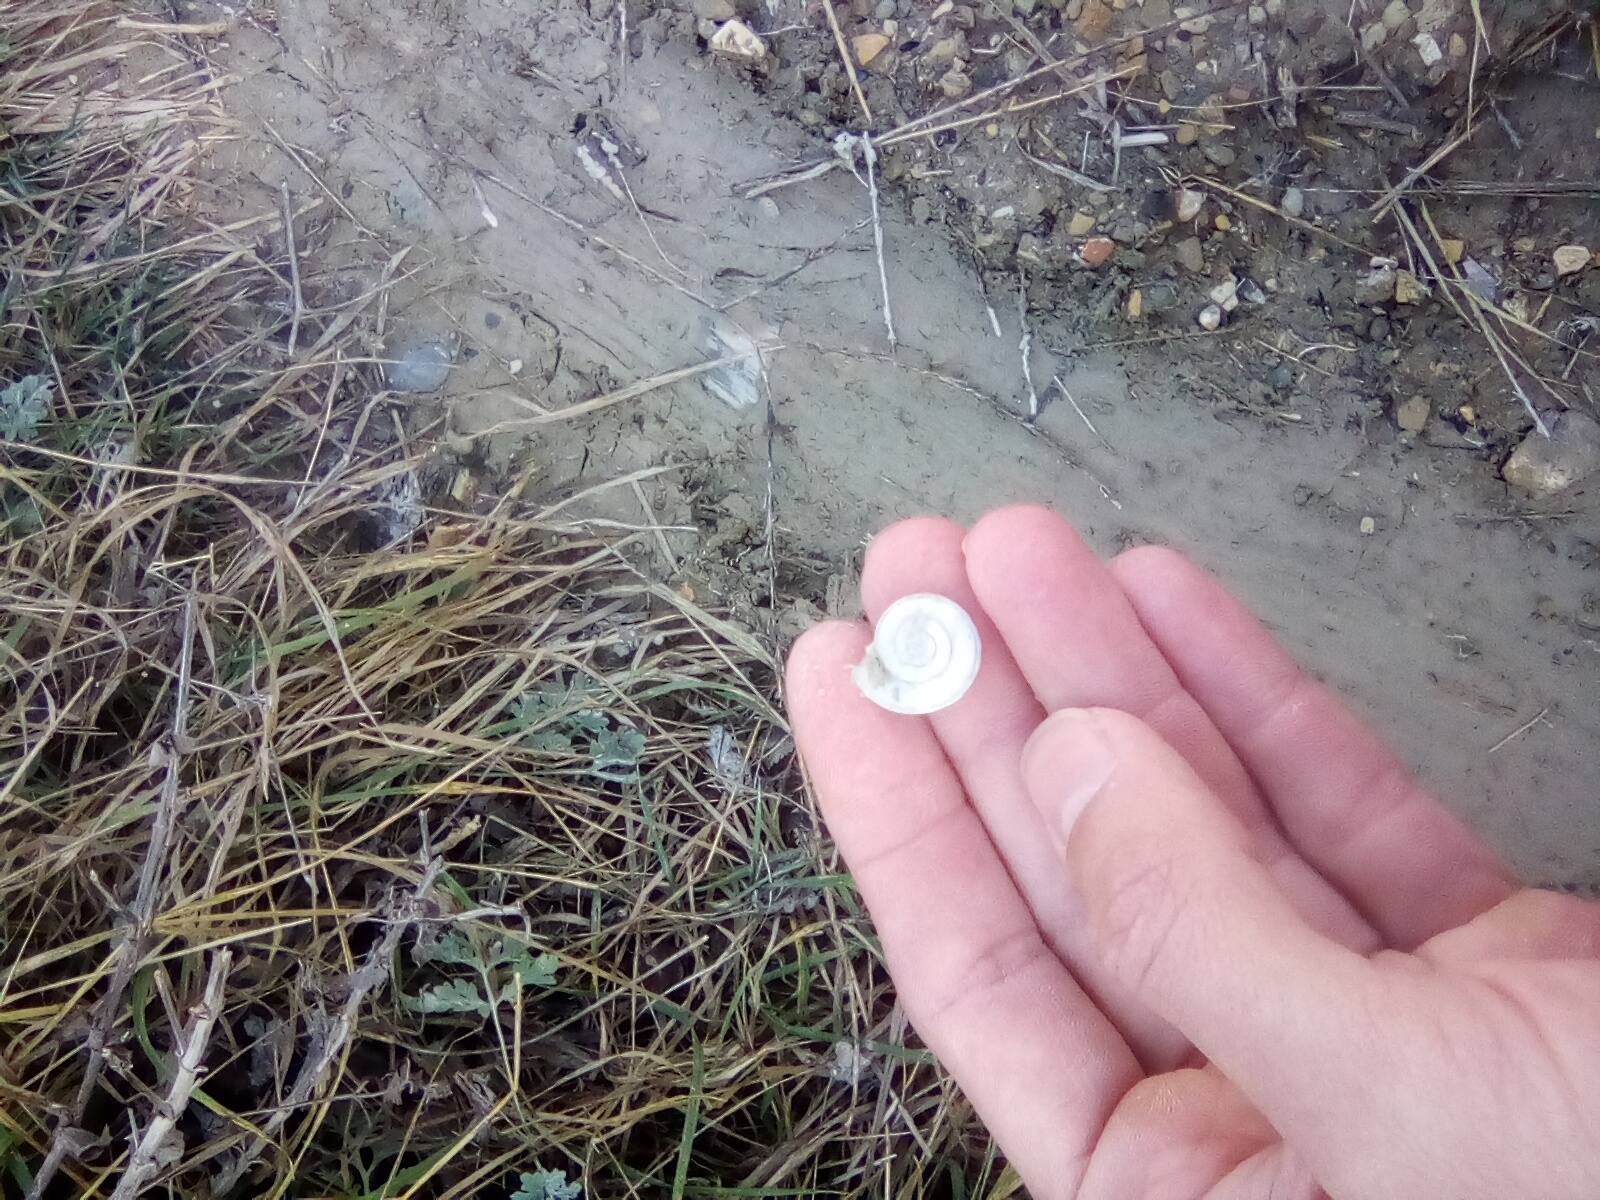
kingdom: Animalia
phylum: Mollusca
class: Gastropoda
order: Stylommatophora
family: Geomitridae
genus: Xeropicta
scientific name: Xeropicta derbentina
